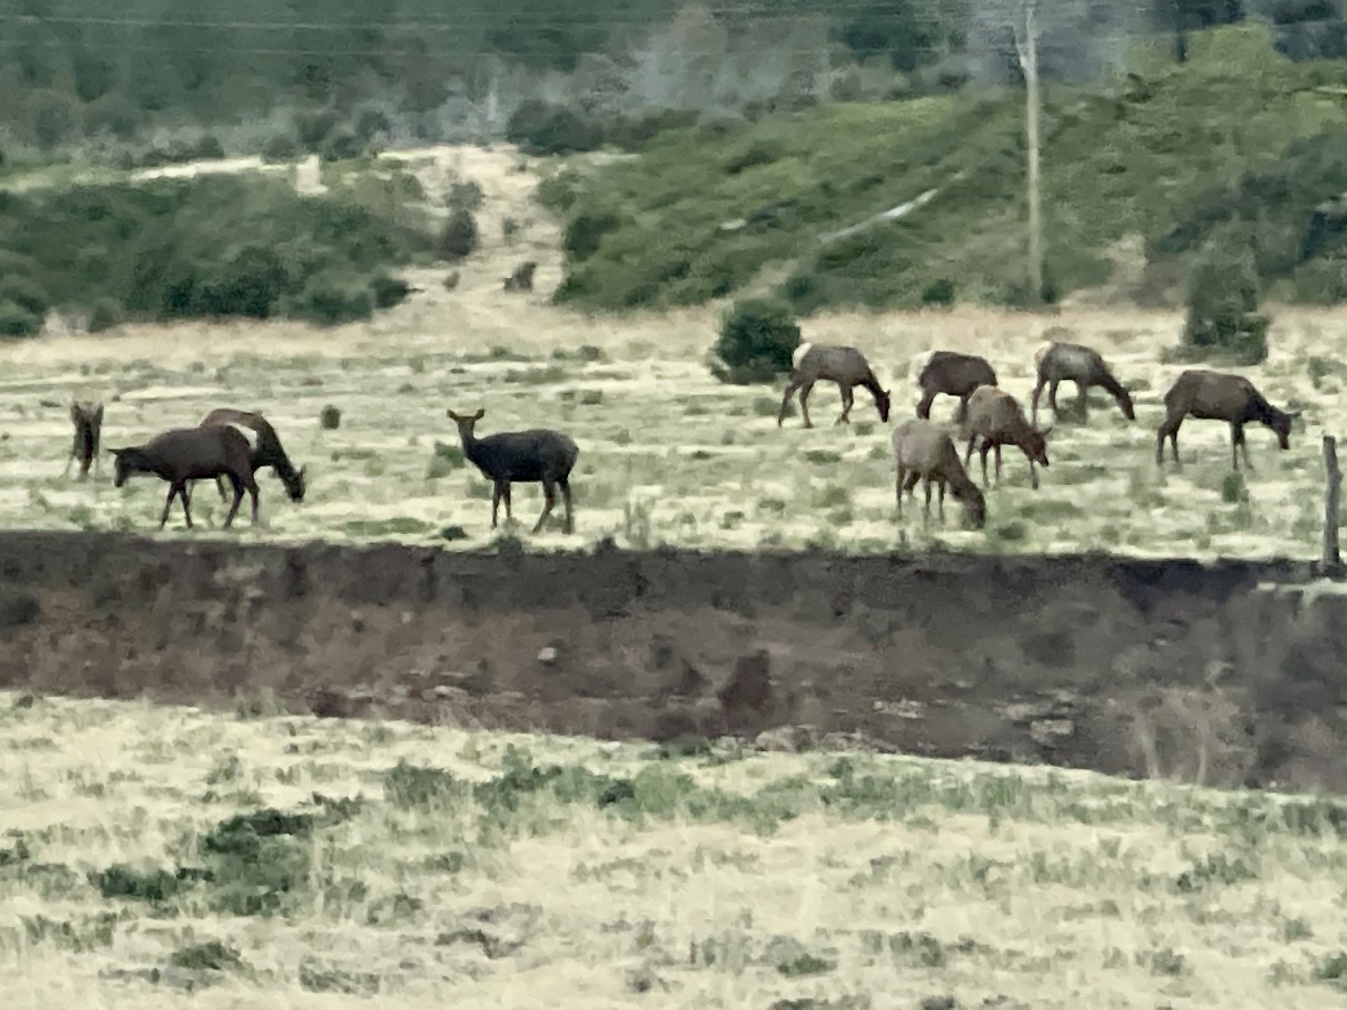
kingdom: Animalia
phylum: Chordata
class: Mammalia
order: Artiodactyla
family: Cervidae
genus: Cervus
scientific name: Cervus elaphus
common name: Red deer
